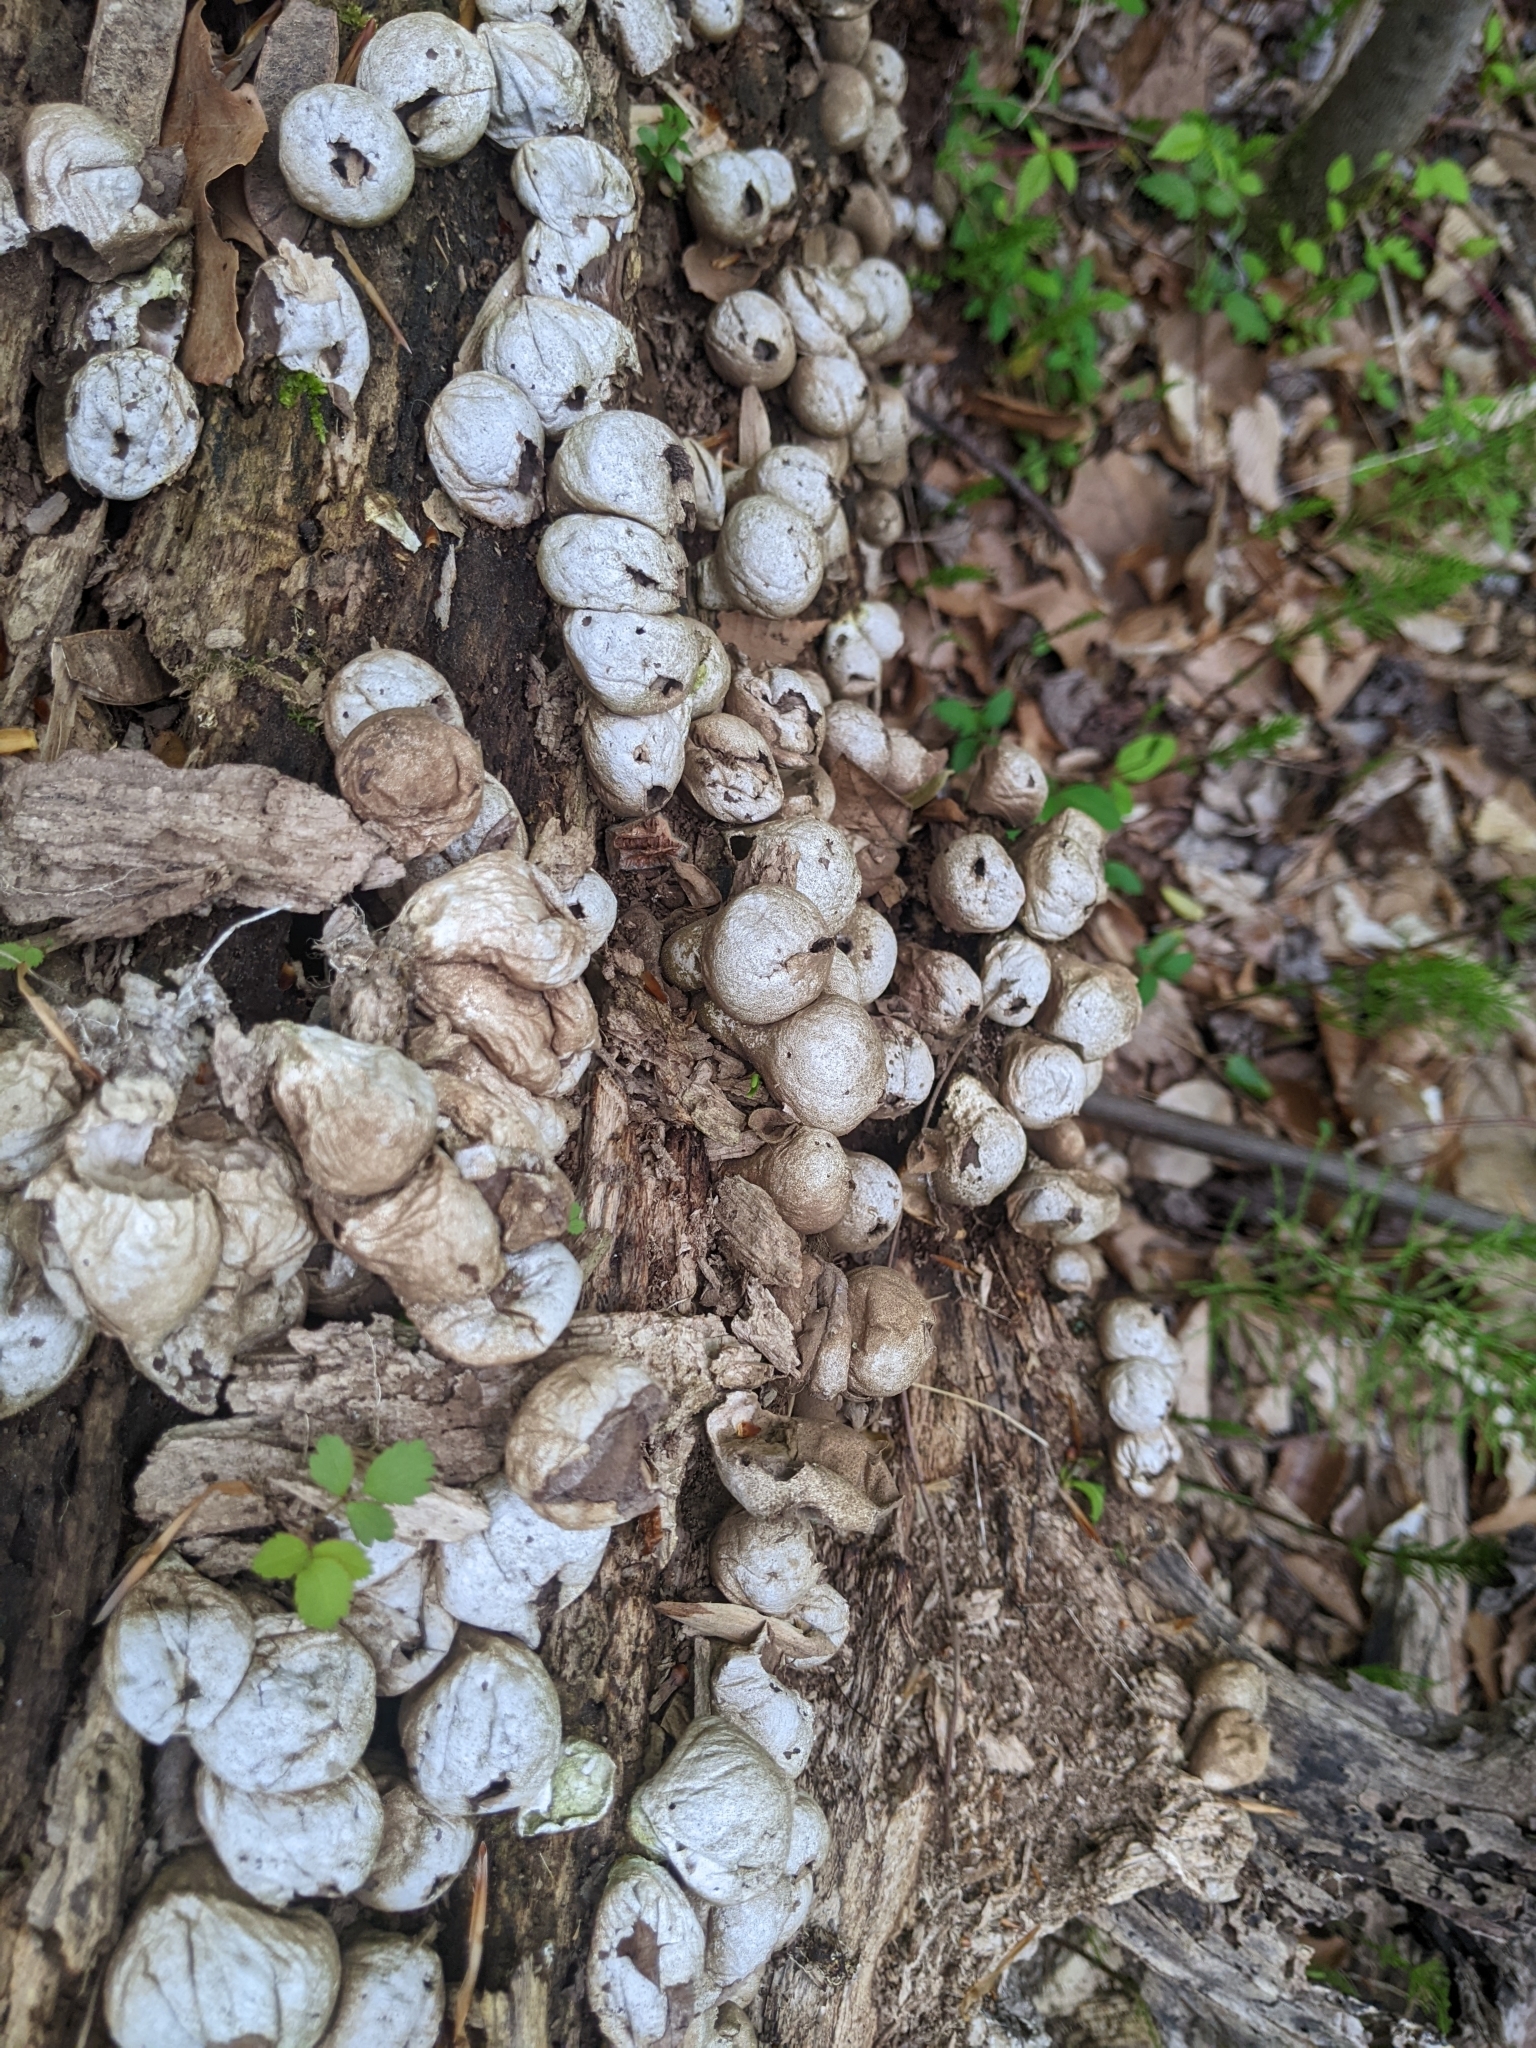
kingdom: Fungi
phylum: Basidiomycota
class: Agaricomycetes
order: Agaricales
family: Lycoperdaceae
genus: Apioperdon
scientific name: Apioperdon pyriforme
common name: Pear-shaped puffball
